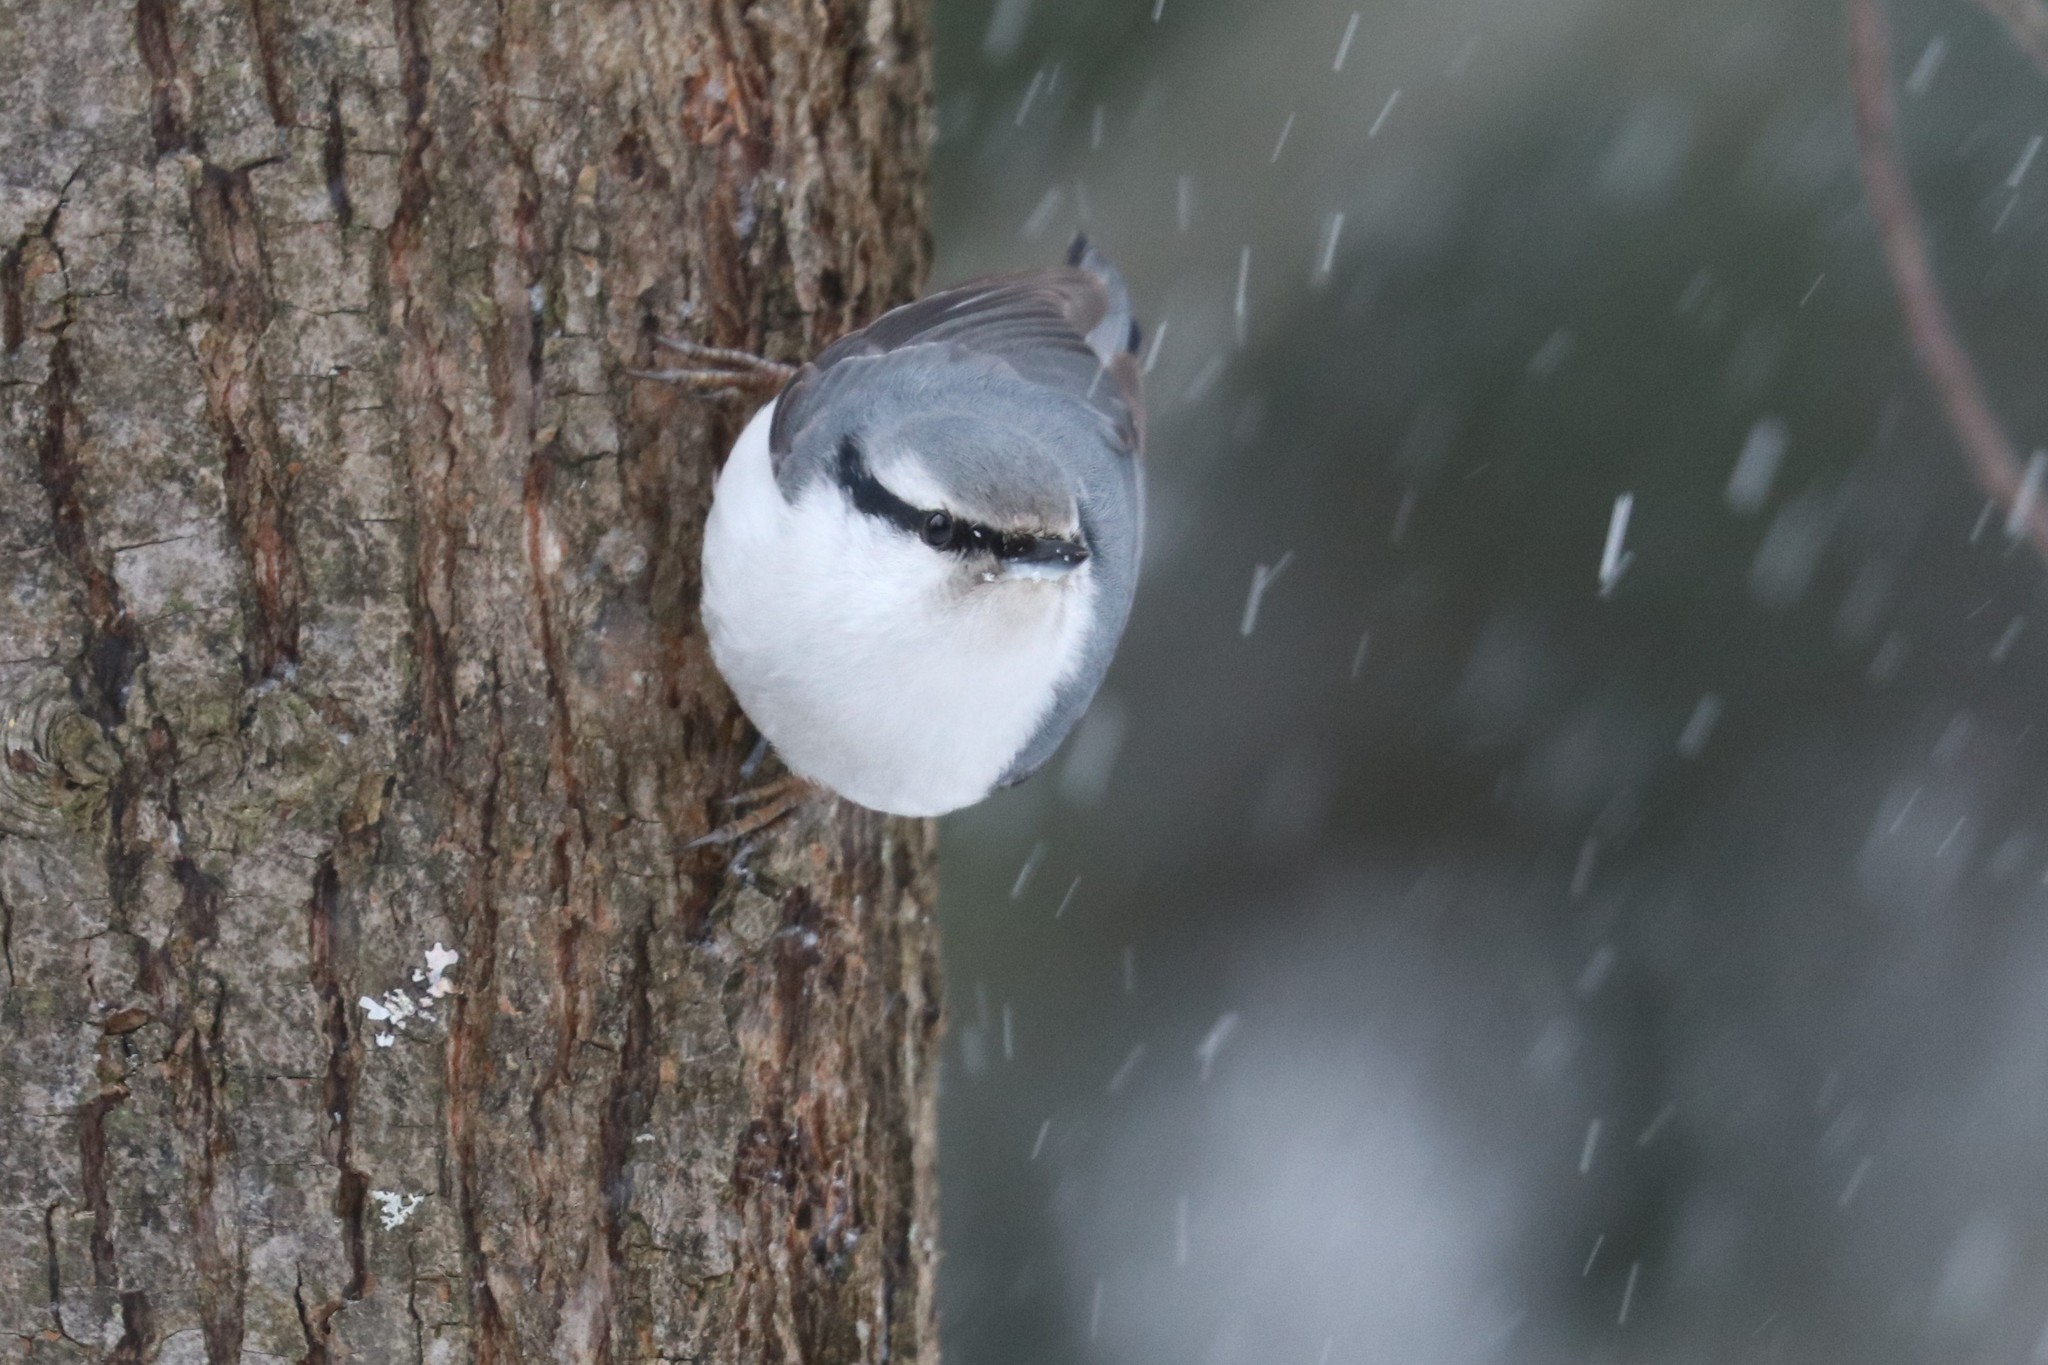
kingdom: Animalia
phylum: Chordata
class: Aves
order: Passeriformes
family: Sittidae
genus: Sitta
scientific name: Sitta europaea
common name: Eurasian nuthatch
